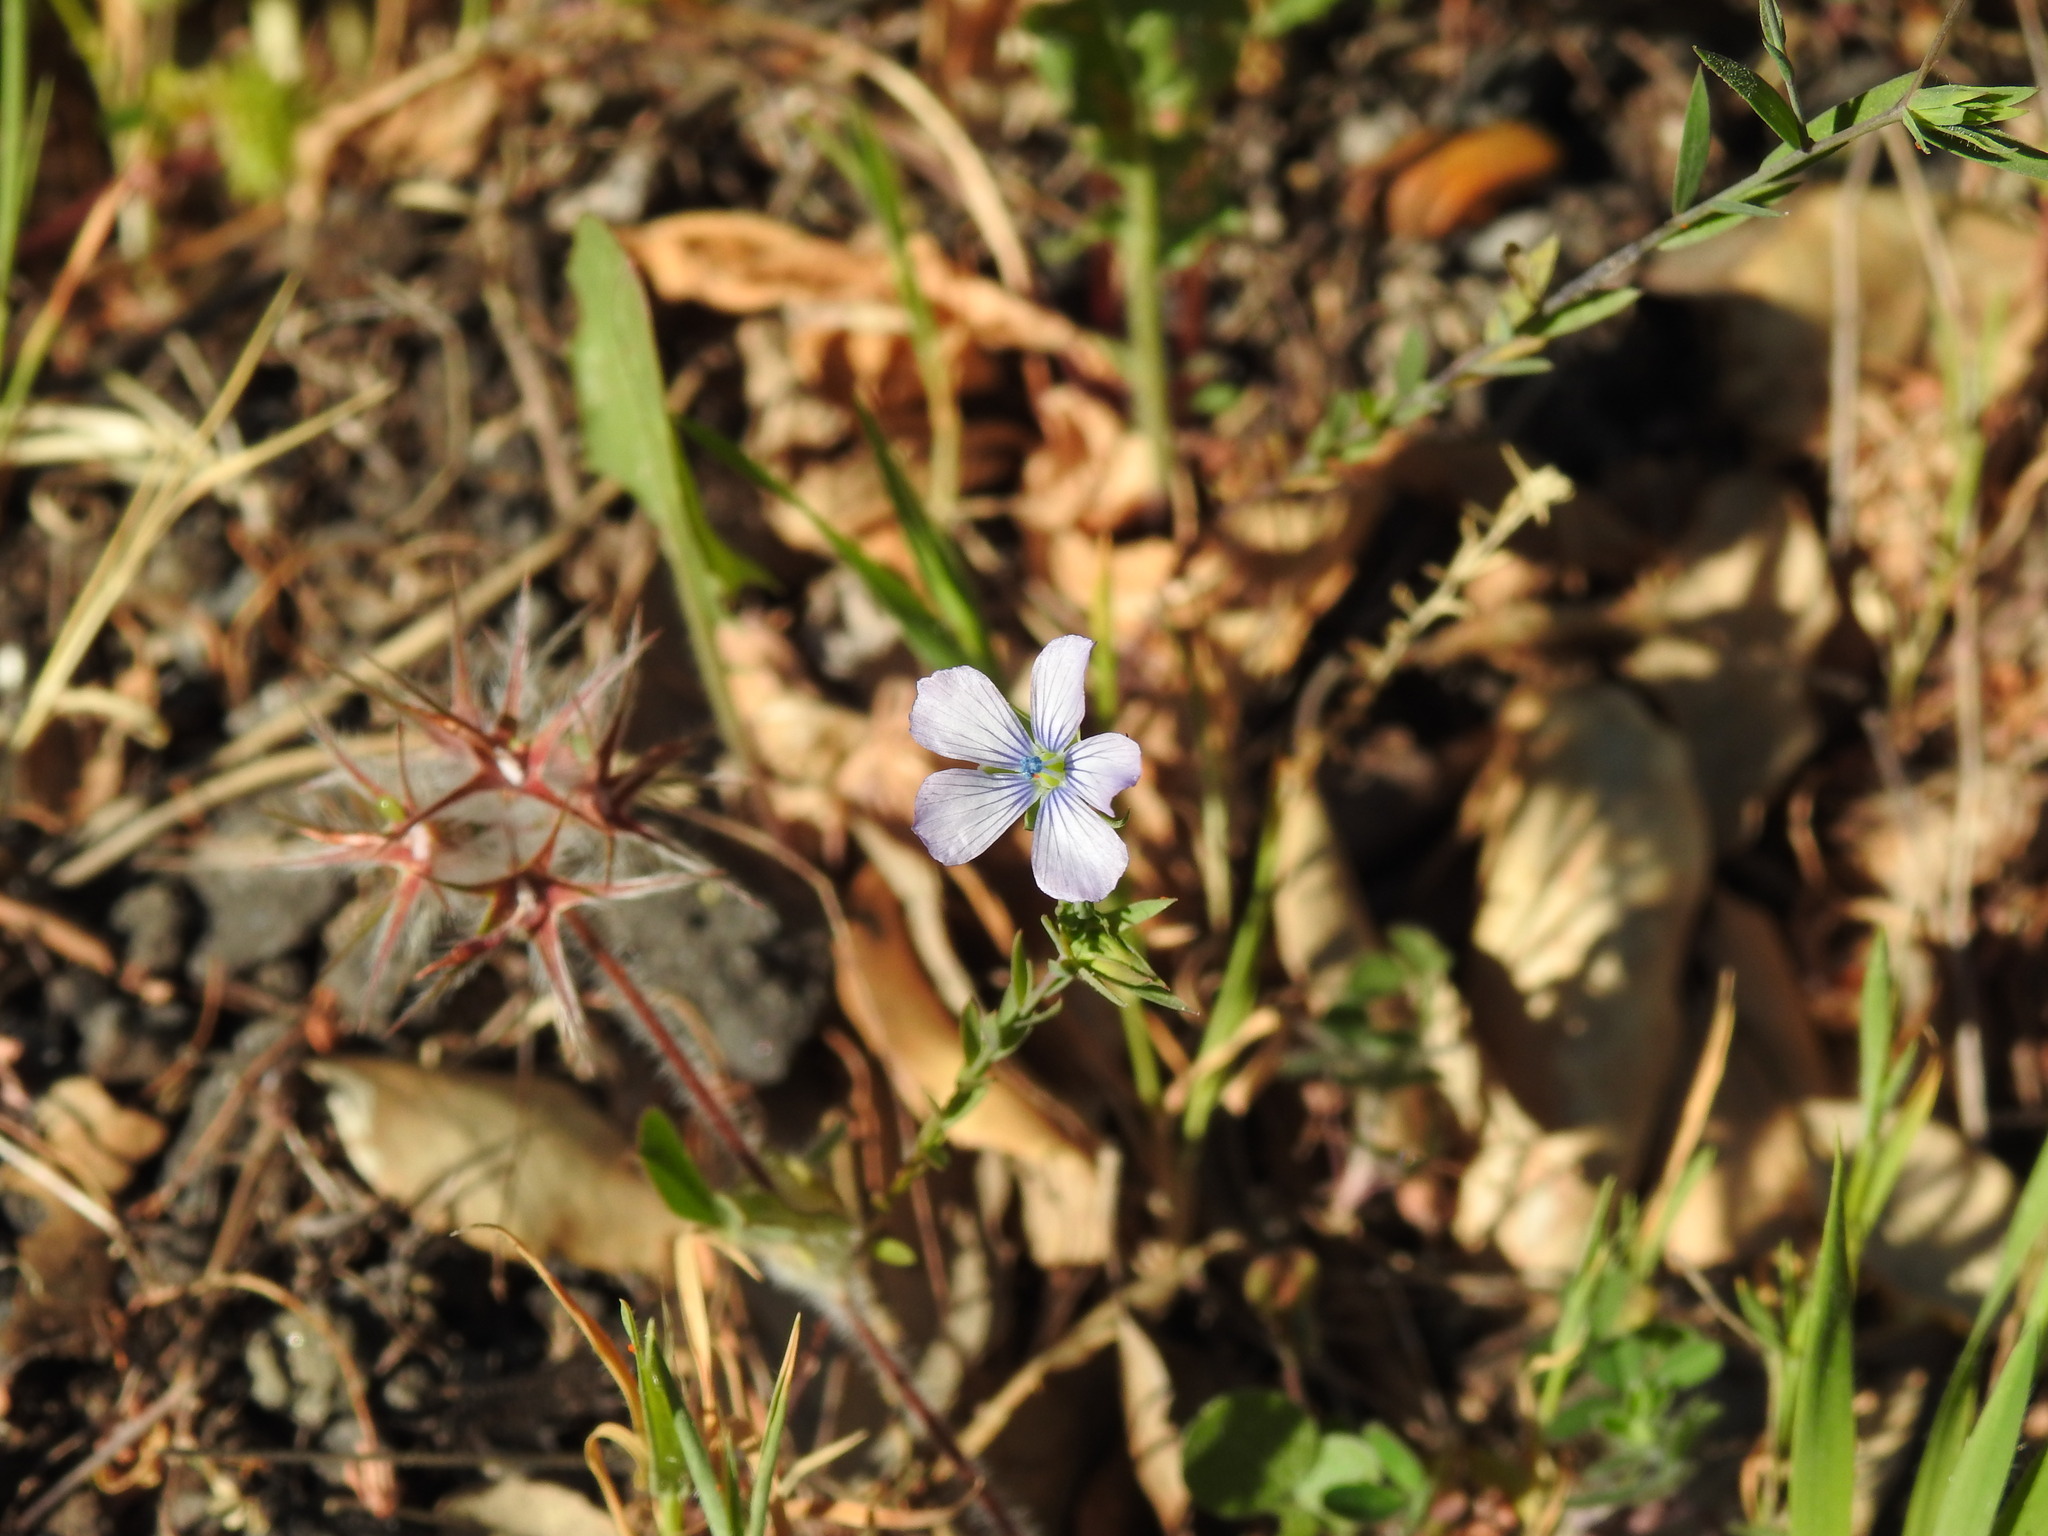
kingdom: Plantae
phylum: Tracheophyta
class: Magnoliopsida
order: Malpighiales
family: Linaceae
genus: Linum
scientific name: Linum bienne
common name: Pale flax
